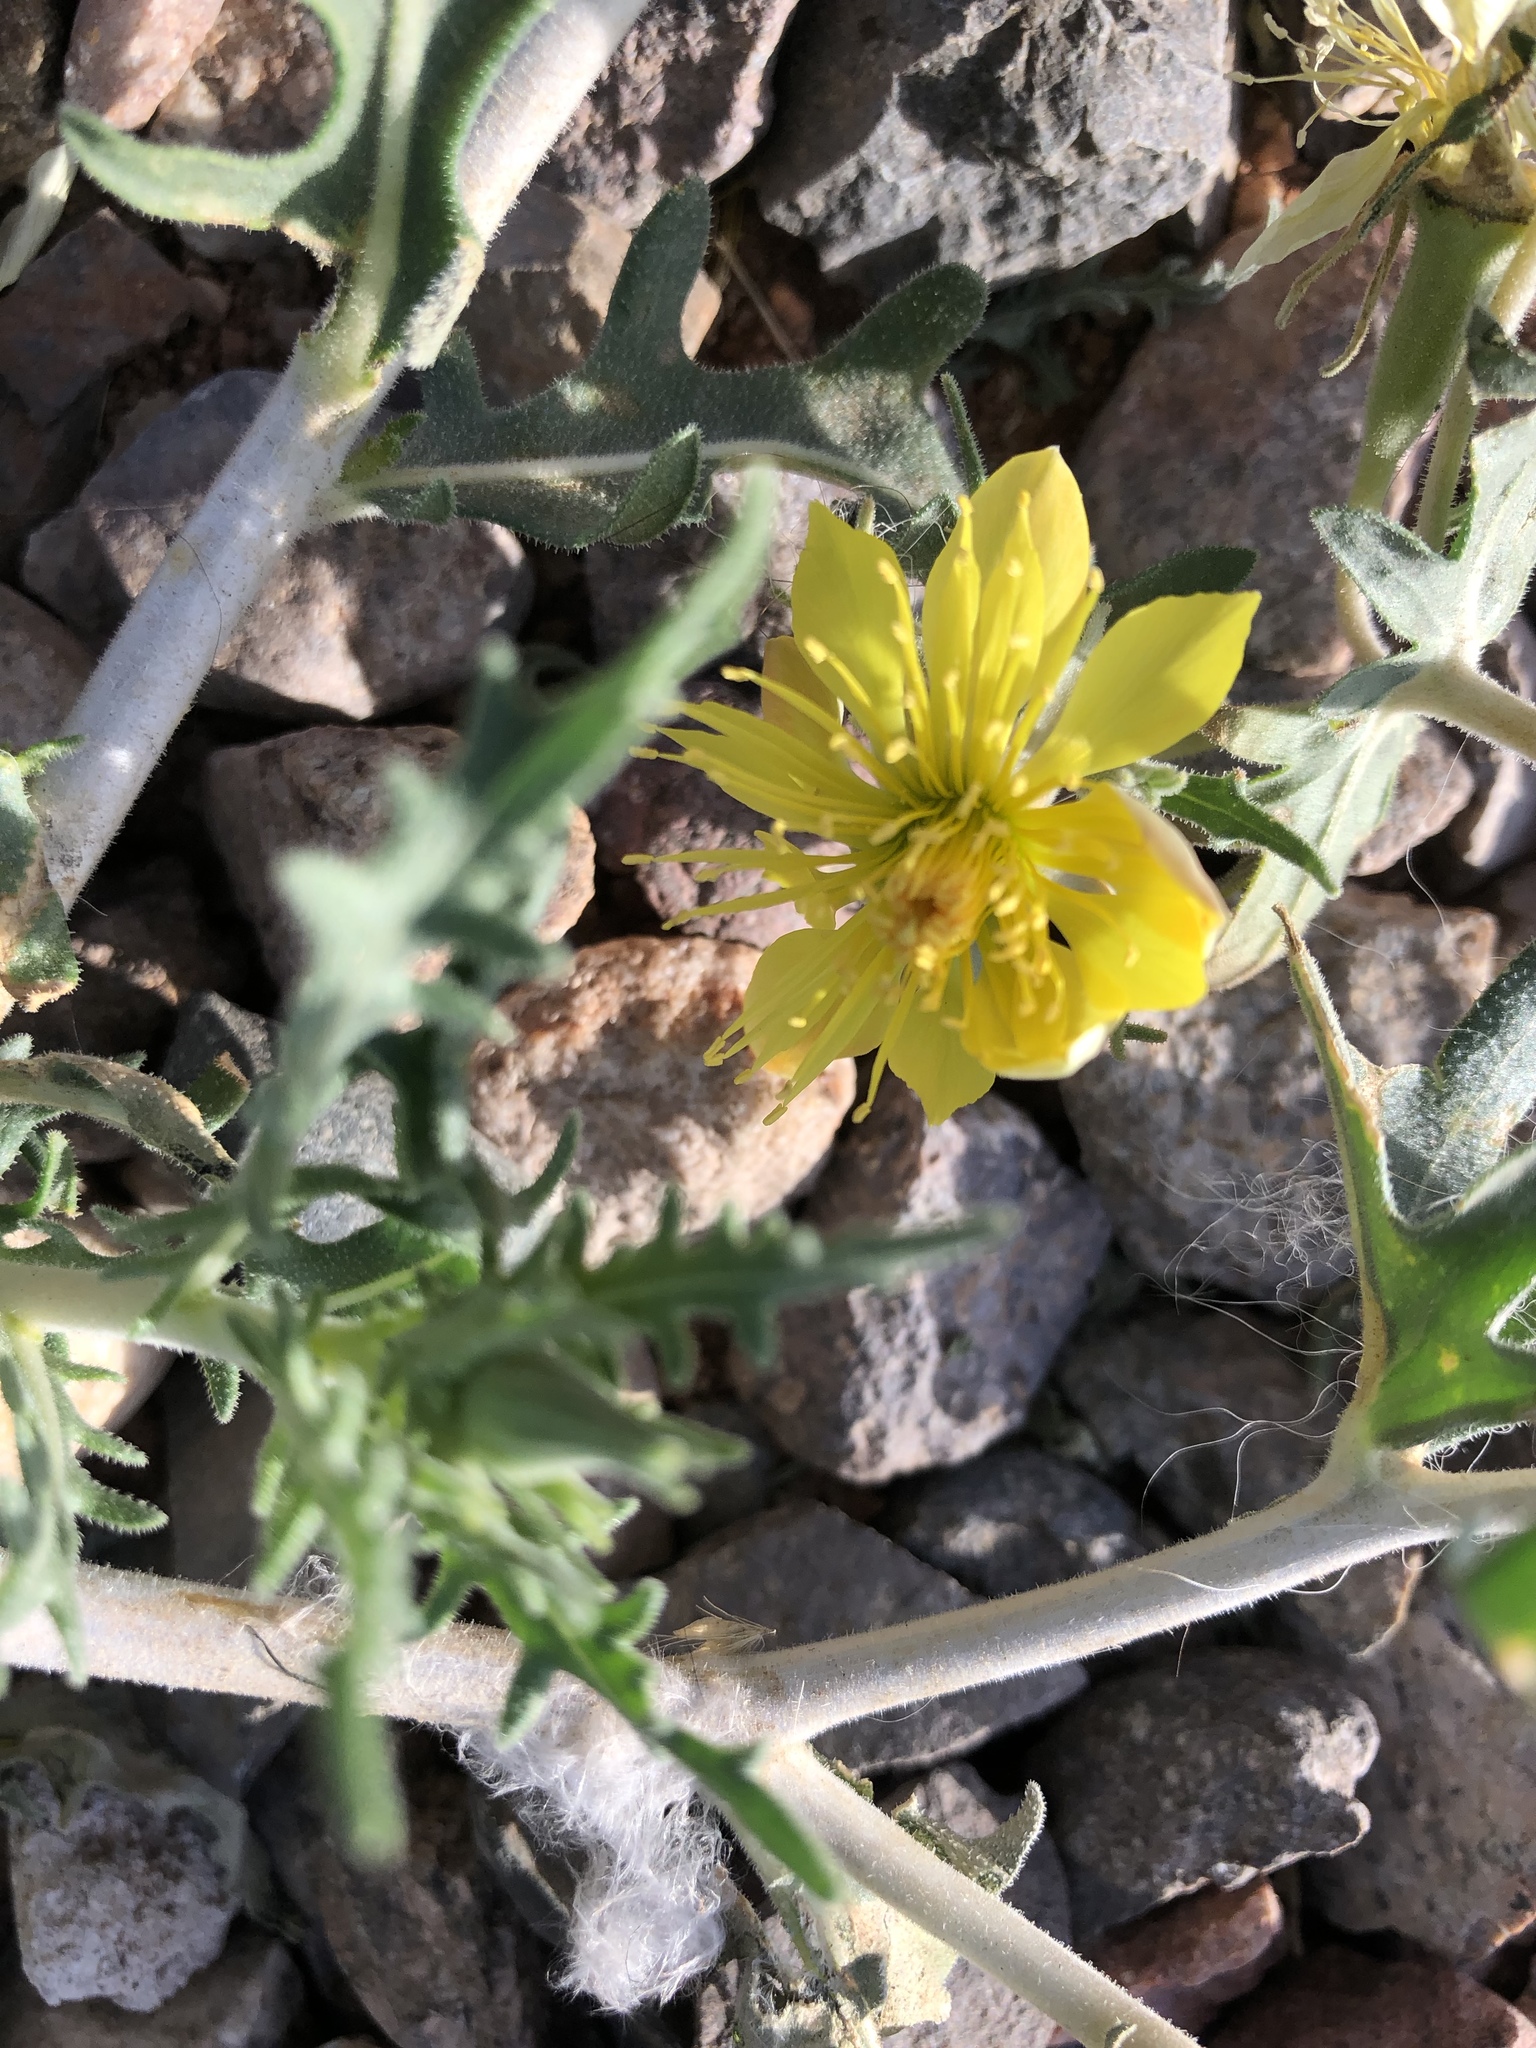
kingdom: Plantae
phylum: Tracheophyta
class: Magnoliopsida
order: Cornales
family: Loasaceae
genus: Mentzelia
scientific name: Mentzelia longiloba
